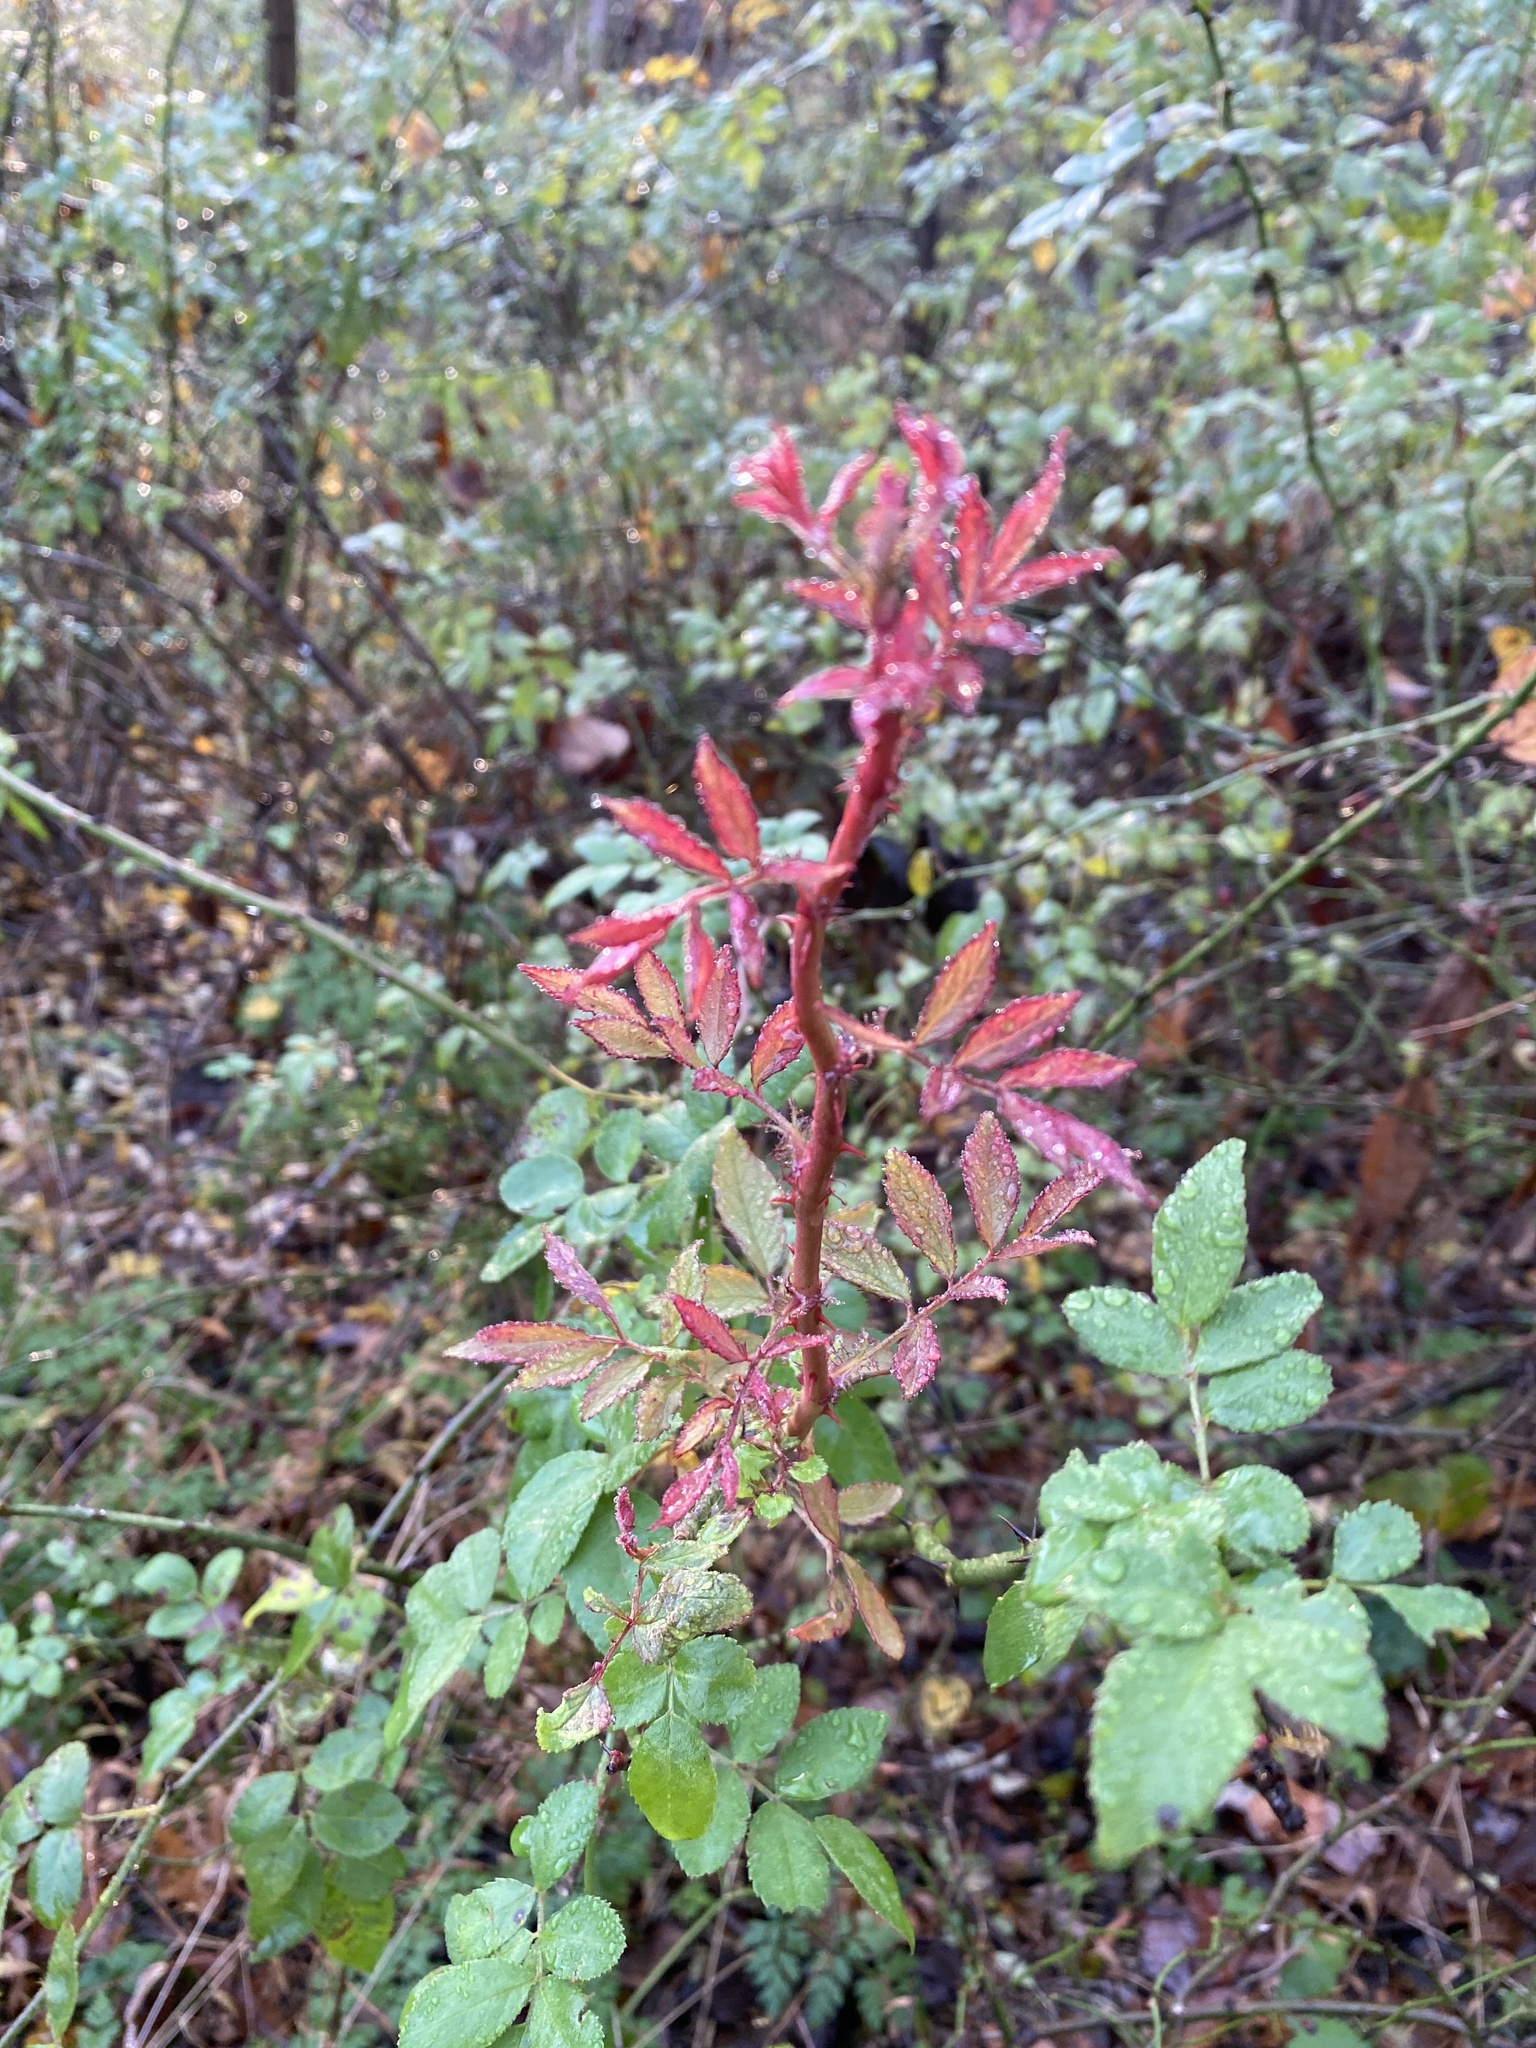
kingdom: Plantae
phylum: Tracheophyta
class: Magnoliopsida
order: Rosales
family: Rosaceae
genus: Rosa
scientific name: Rosa multiflora
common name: Multiflora rose
